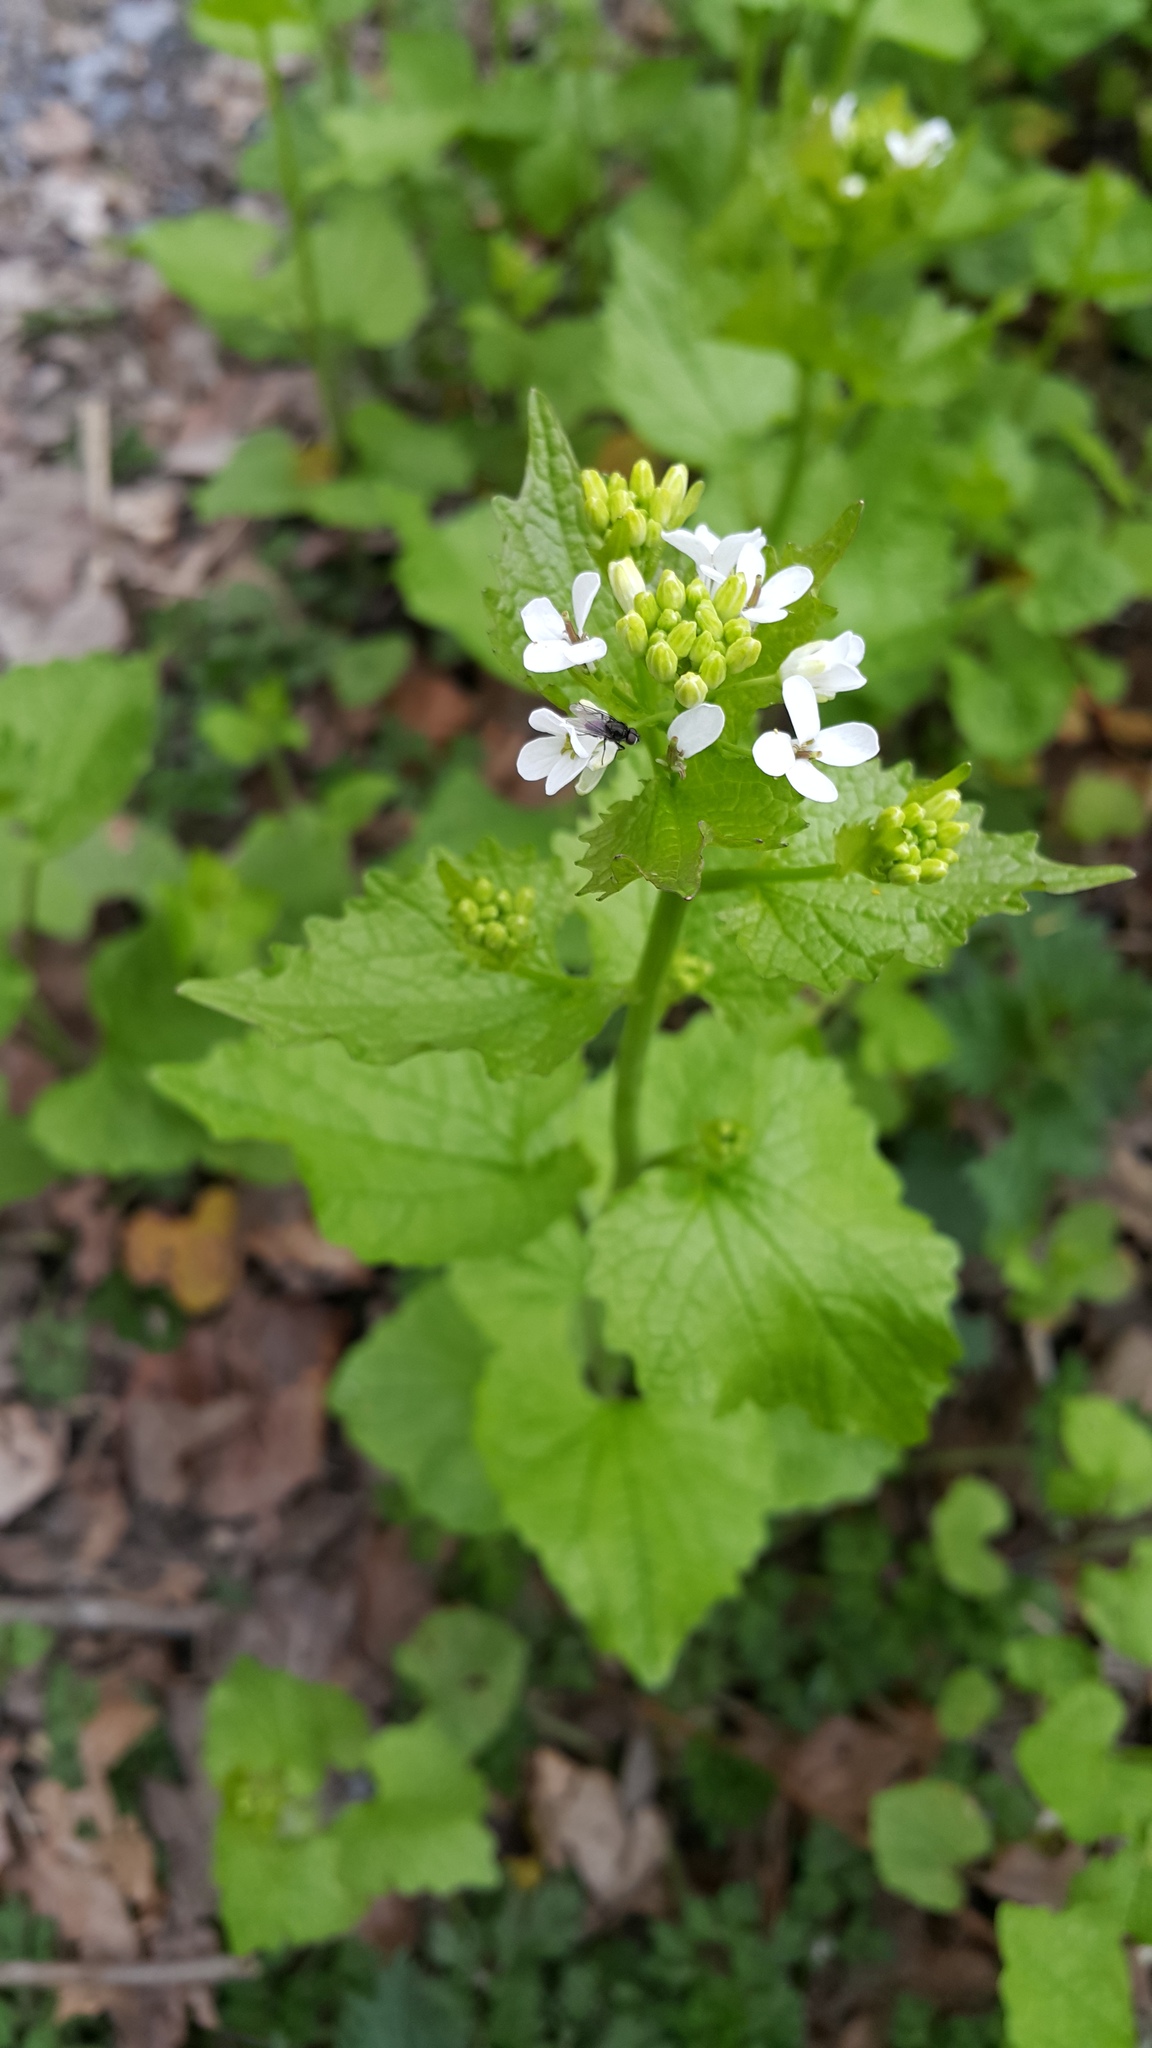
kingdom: Plantae
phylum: Tracheophyta
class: Magnoliopsida
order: Brassicales
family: Brassicaceae
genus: Alliaria
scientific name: Alliaria petiolata
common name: Garlic mustard
